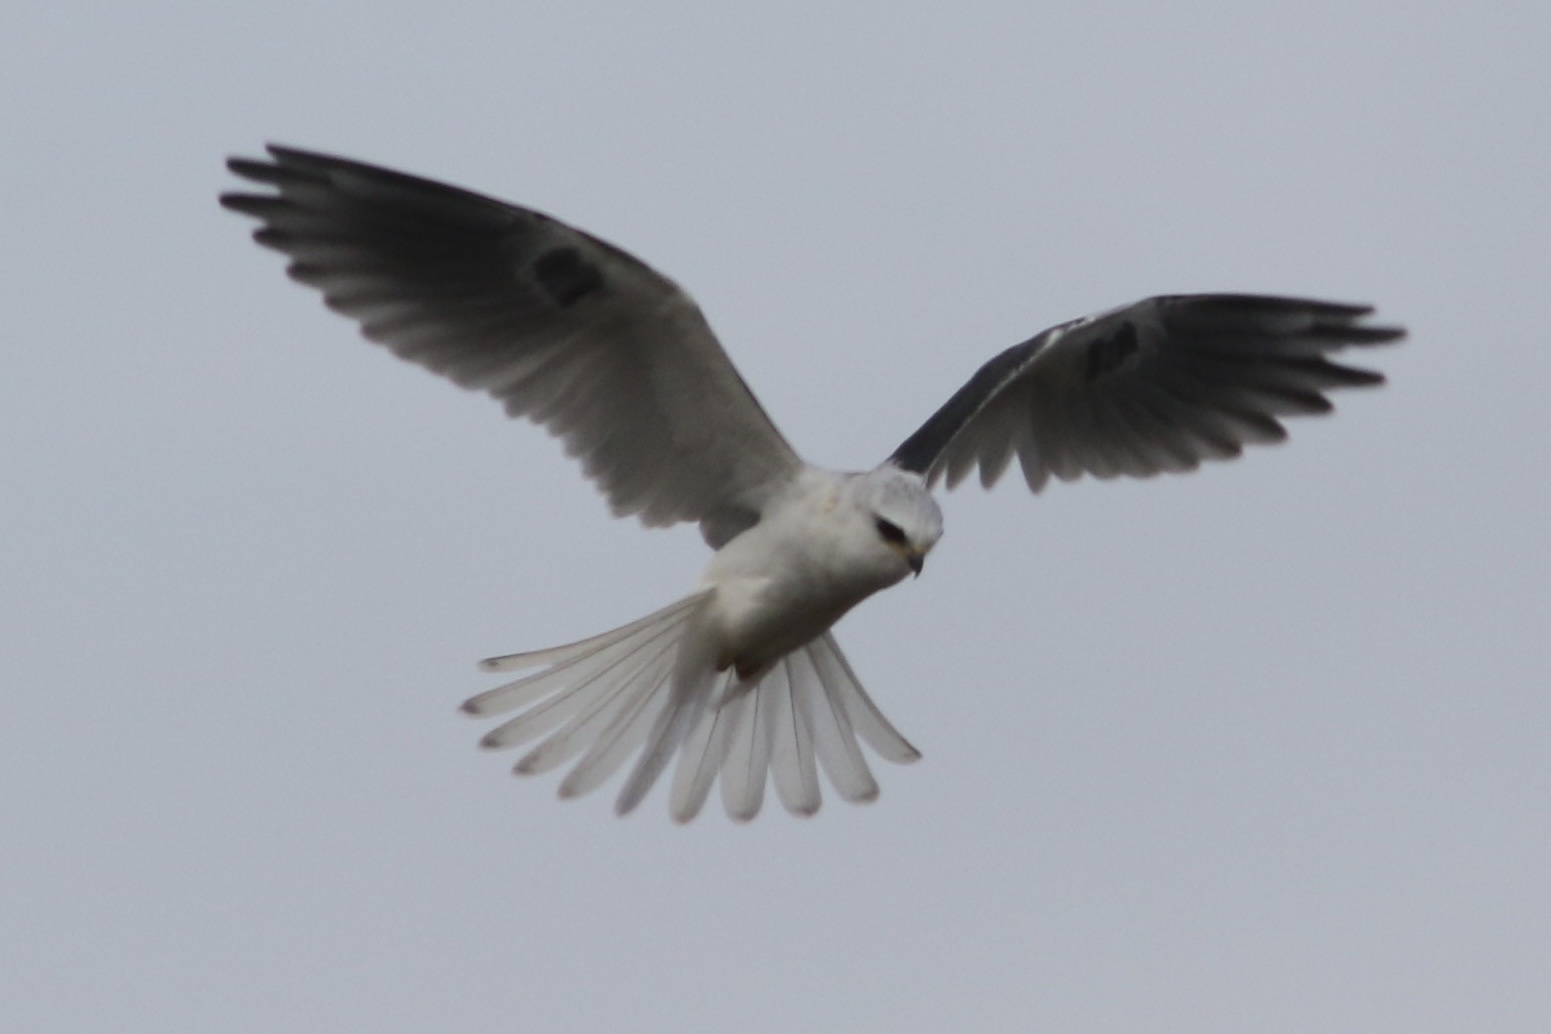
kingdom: Animalia
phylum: Chordata
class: Aves
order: Accipitriformes
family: Accipitridae
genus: Elanus
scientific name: Elanus leucurus
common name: White-tailed kite
